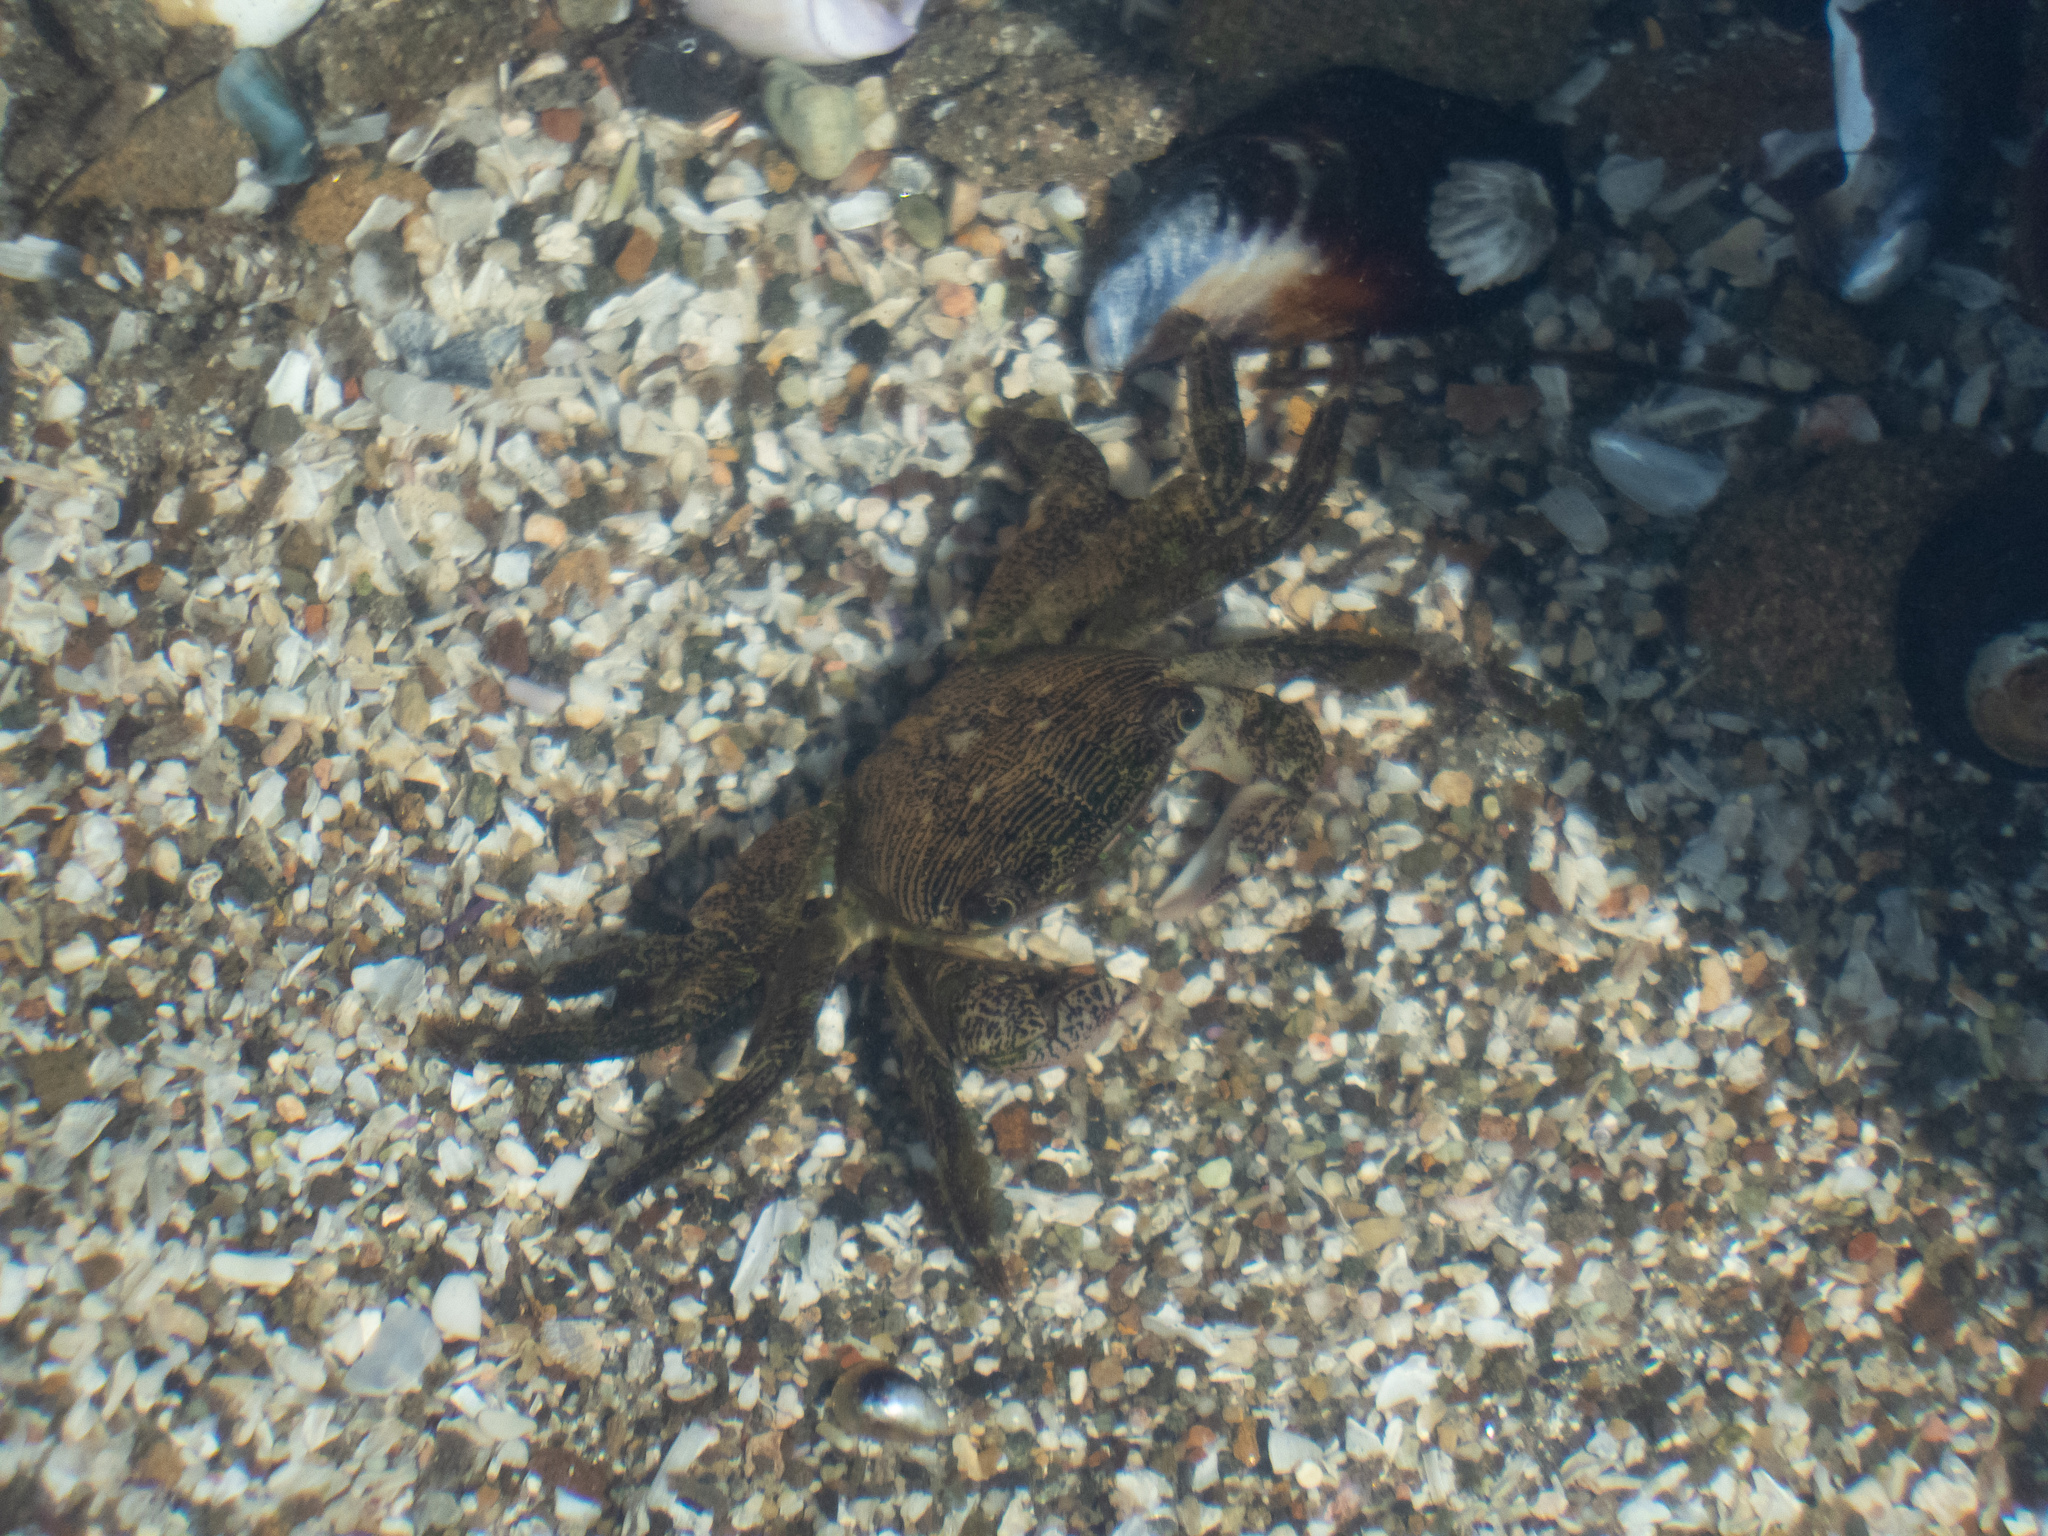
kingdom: Animalia
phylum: Arthropoda
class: Malacostraca
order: Decapoda
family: Grapsidae
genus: Pachygrapsus
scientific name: Pachygrapsus crassipes
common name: Striped shore crab
